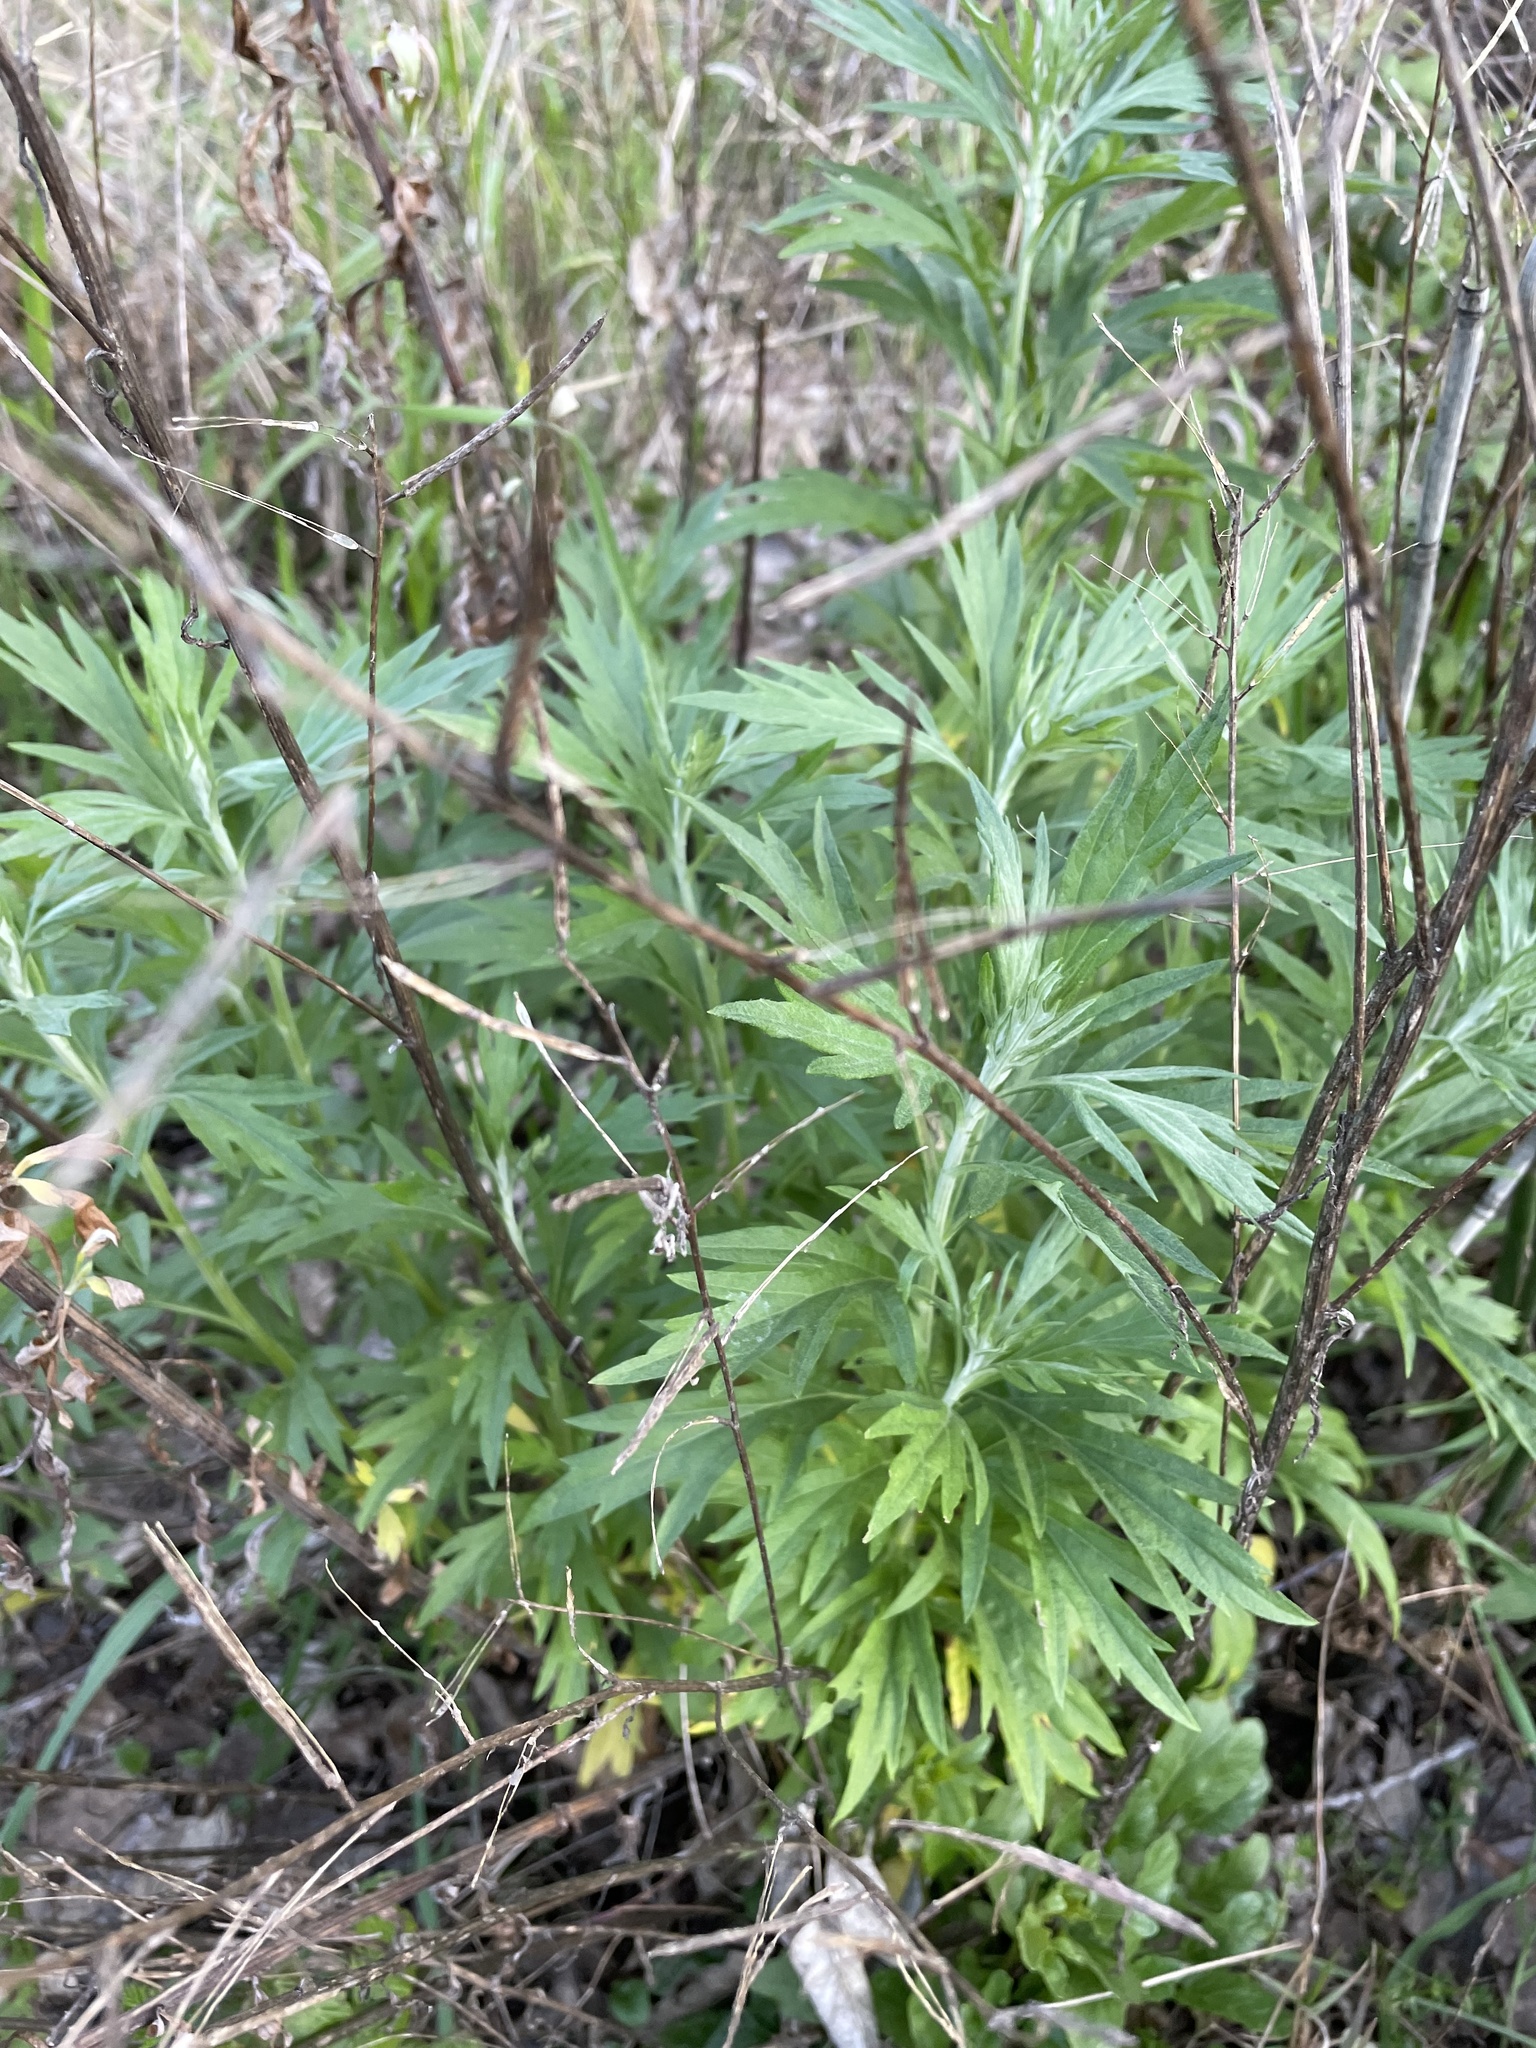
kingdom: Plantae
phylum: Tracheophyta
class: Magnoliopsida
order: Asterales
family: Asteraceae
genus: Artemisia
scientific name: Artemisia douglasiana
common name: Northwest mugwort
